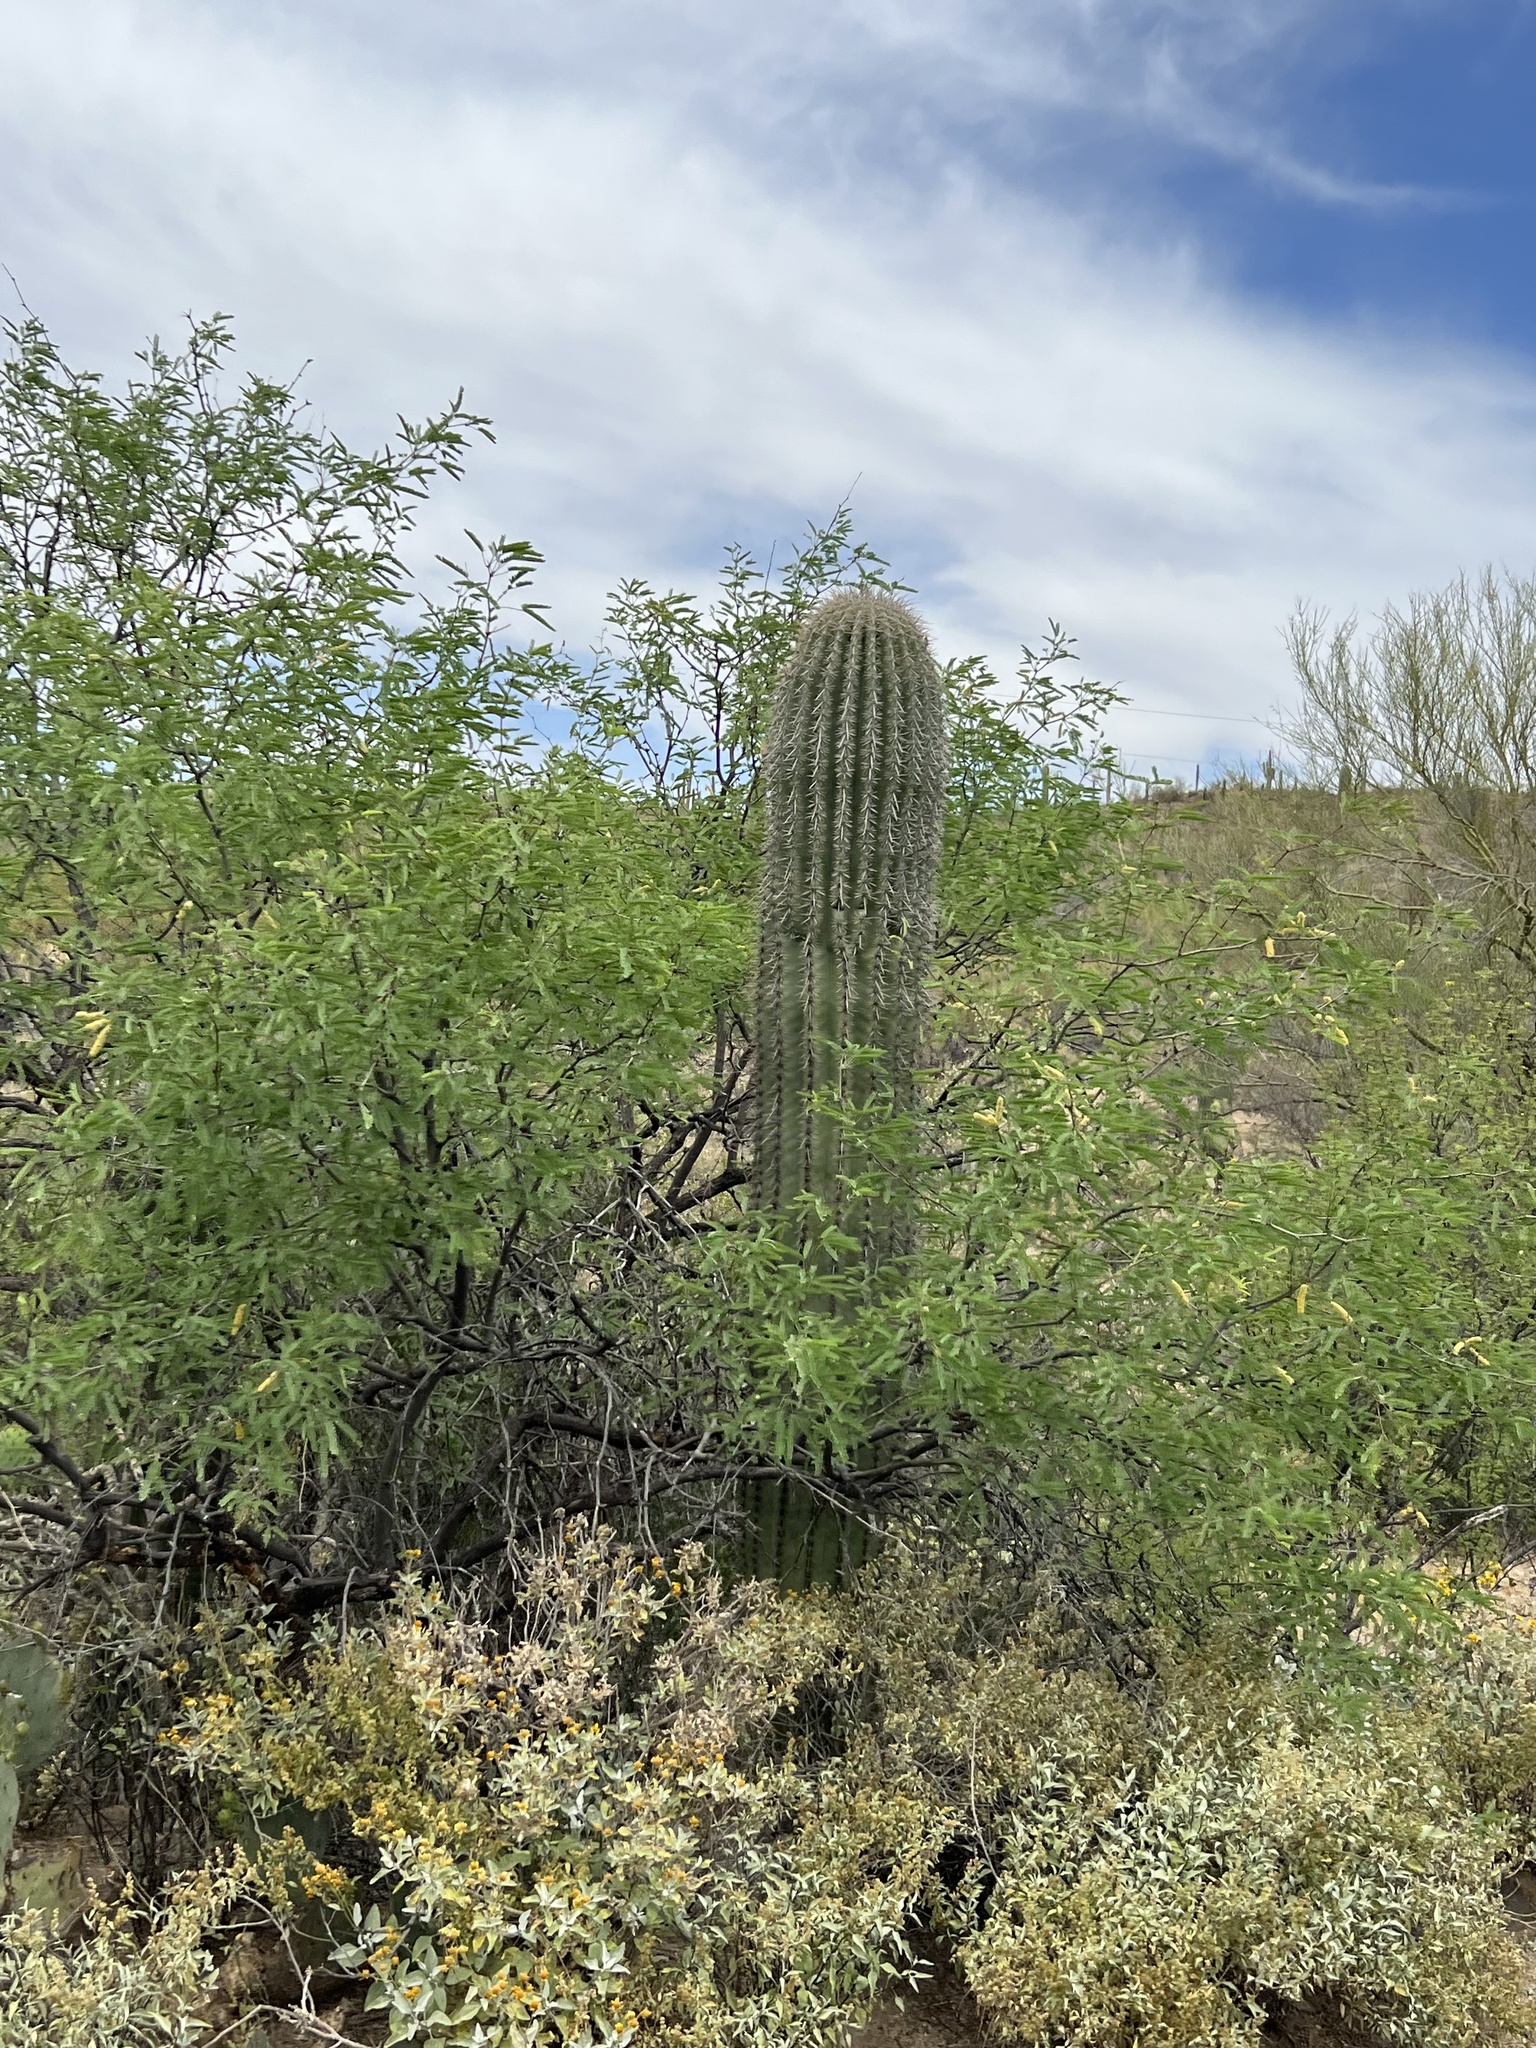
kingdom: Plantae
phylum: Tracheophyta
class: Magnoliopsida
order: Caryophyllales
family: Cactaceae
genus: Carnegiea
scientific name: Carnegiea gigantea
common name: Saguaro
